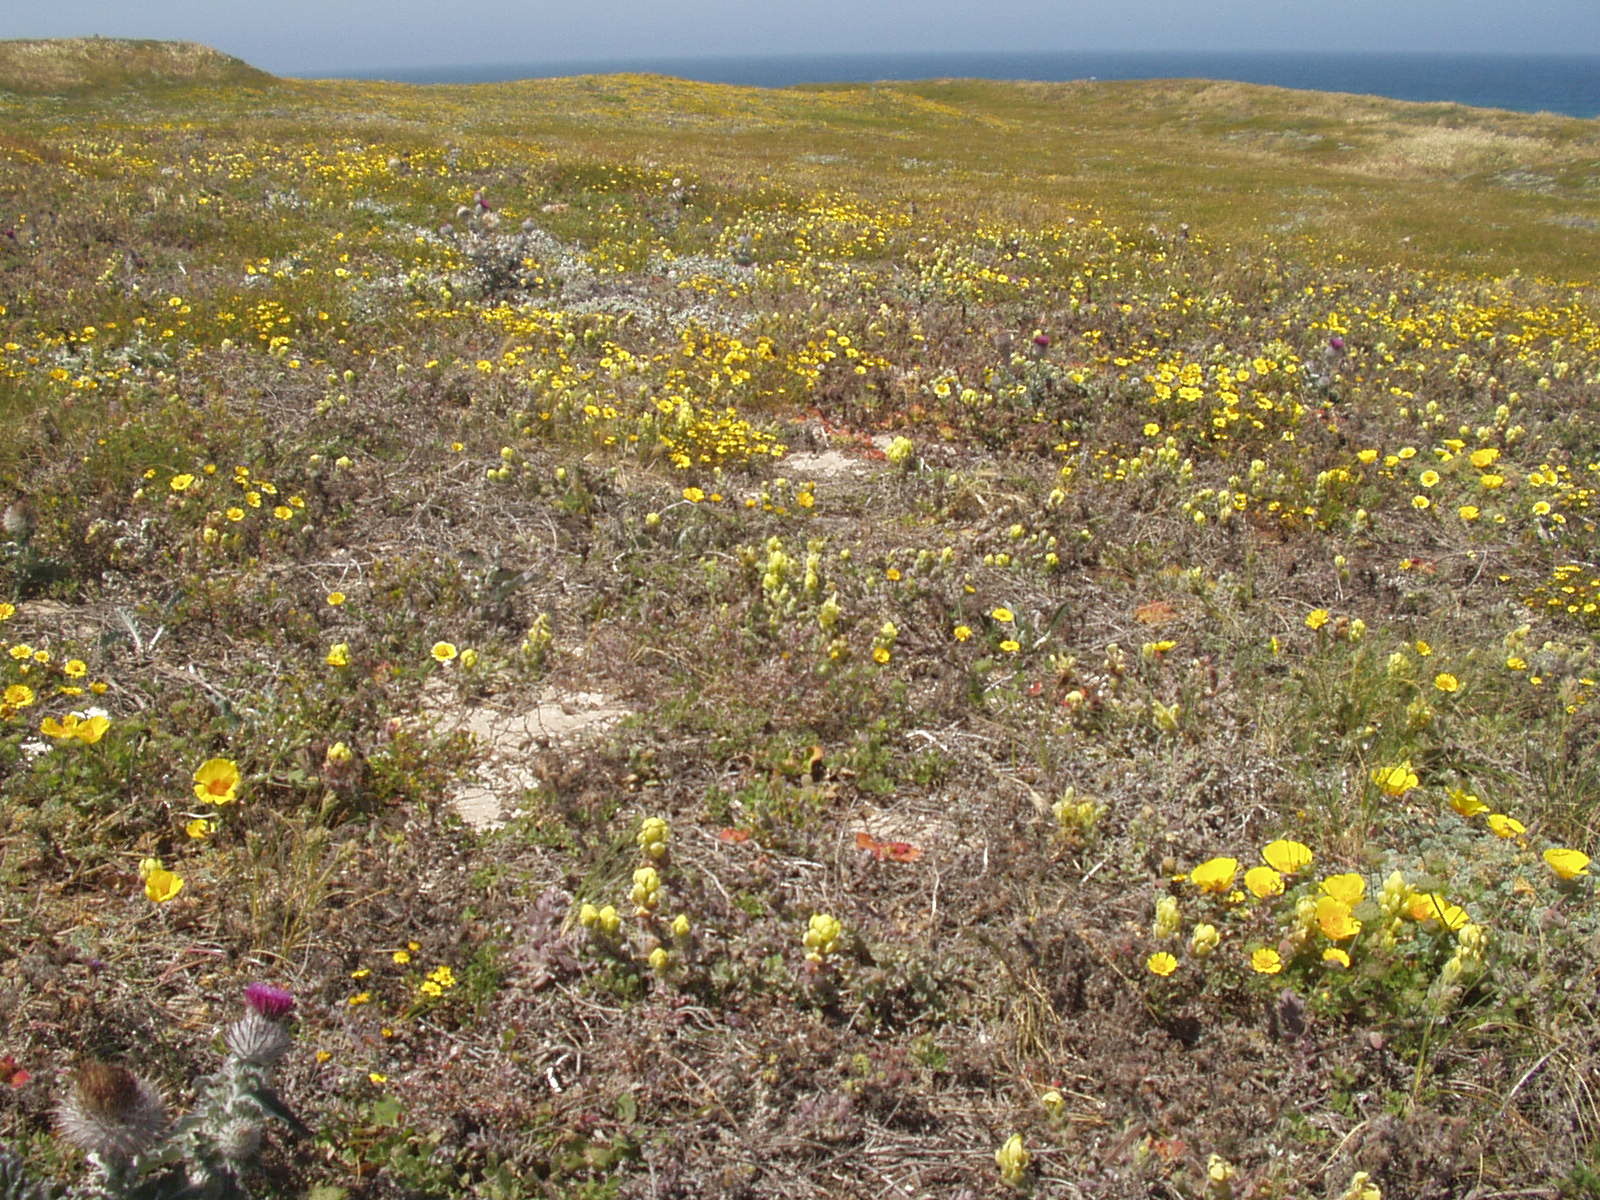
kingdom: Plantae
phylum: Tracheophyta
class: Magnoliopsida
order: Lamiales
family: Orobanchaceae
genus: Castilleja
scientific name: Castilleja mollis
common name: Soft-leaf paintbrush
